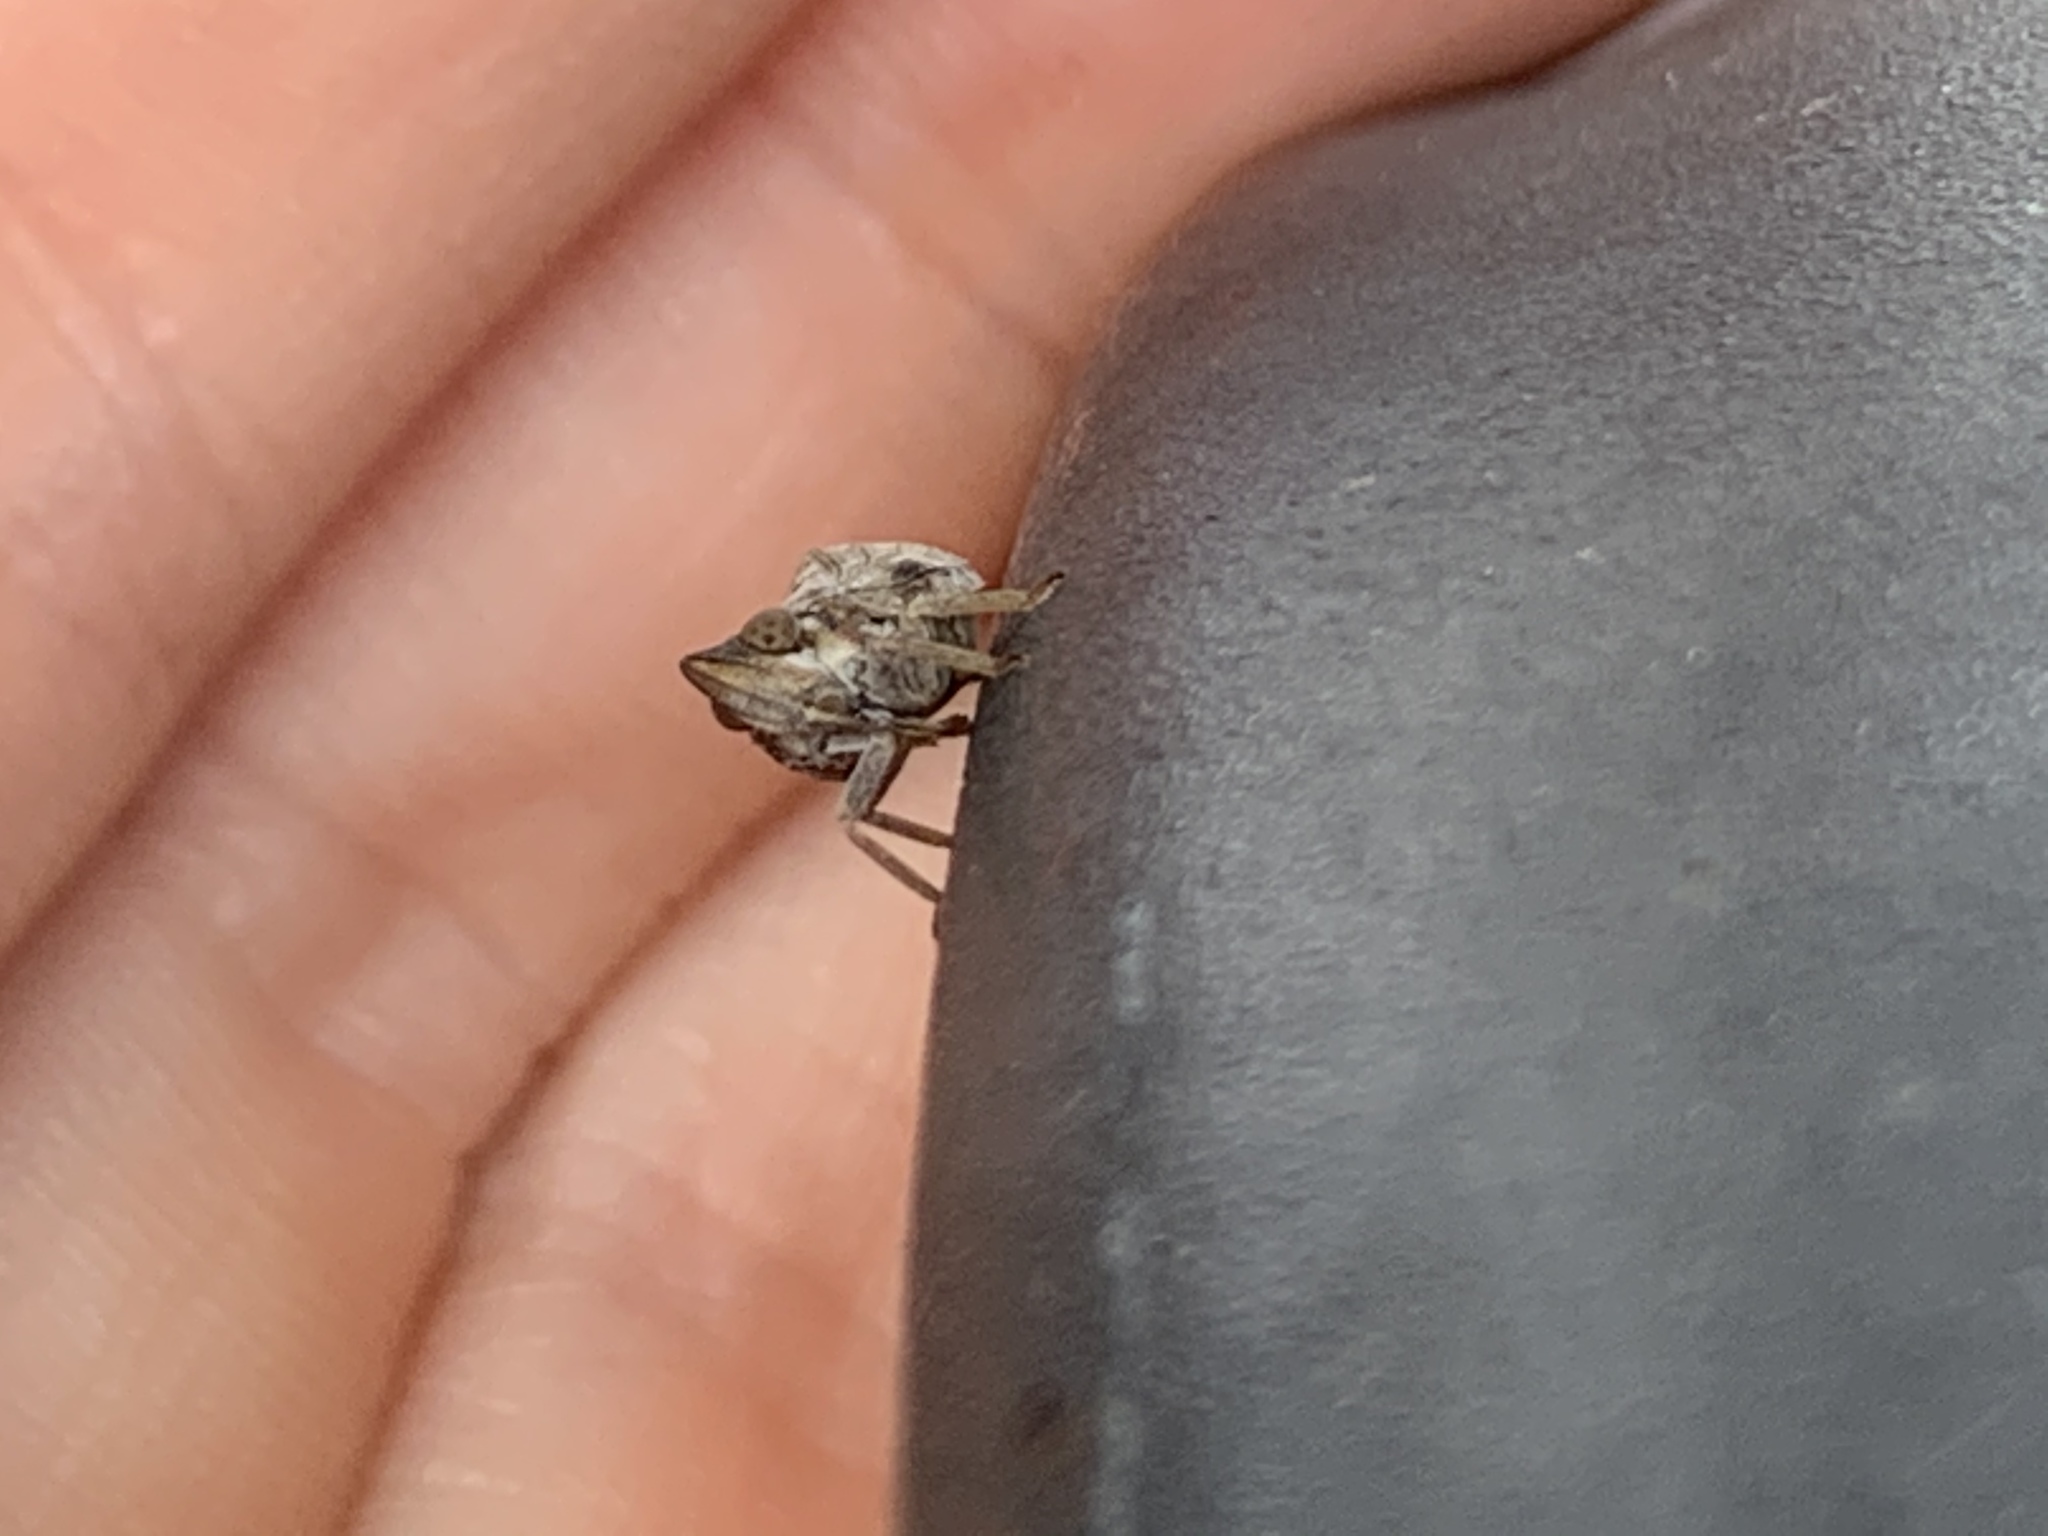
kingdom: Animalia
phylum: Arthropoda
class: Insecta
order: Hemiptera
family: Issidae
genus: Fowlerium
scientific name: Fowlerium acutum
